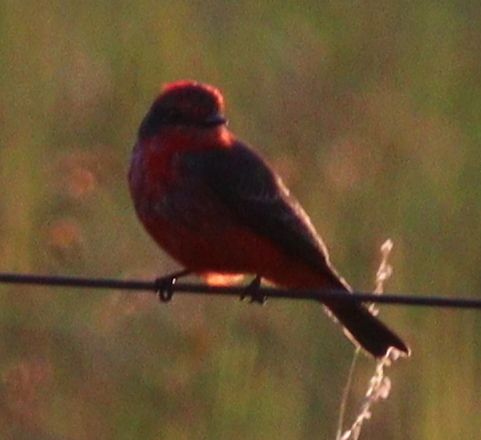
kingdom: Animalia
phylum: Chordata
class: Aves
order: Passeriformes
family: Tyrannidae
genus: Pyrocephalus
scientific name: Pyrocephalus rubinus
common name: Vermilion flycatcher
